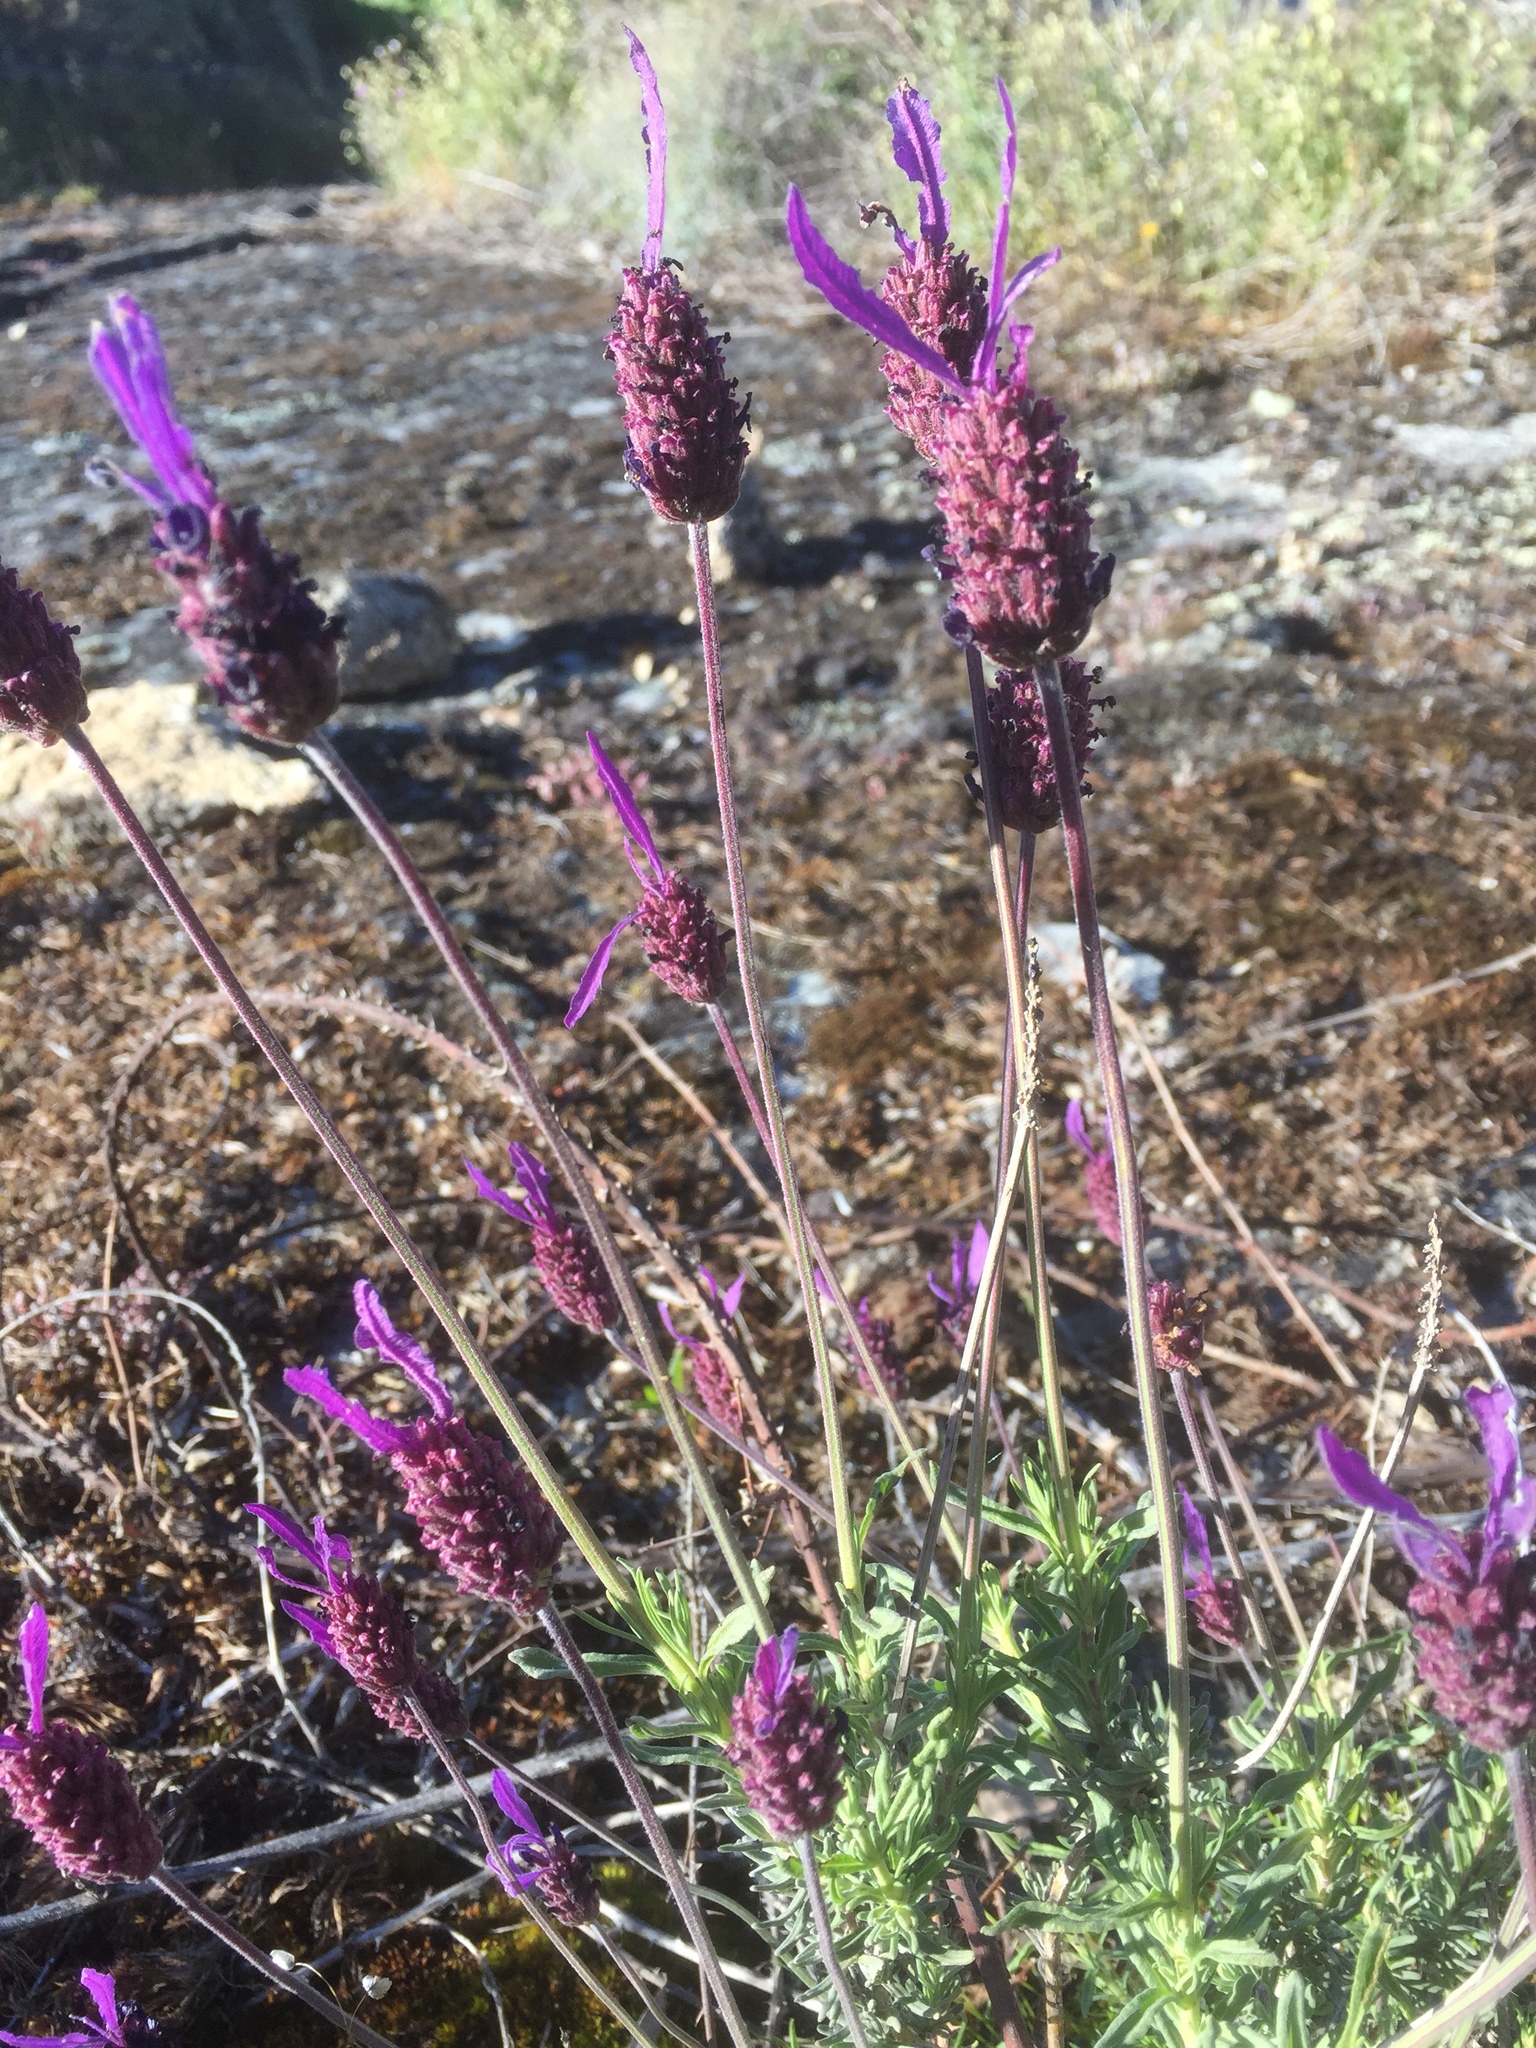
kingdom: Plantae
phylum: Tracheophyta
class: Magnoliopsida
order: Lamiales
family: Lamiaceae
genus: Lavandula
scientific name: Lavandula pedunculata
